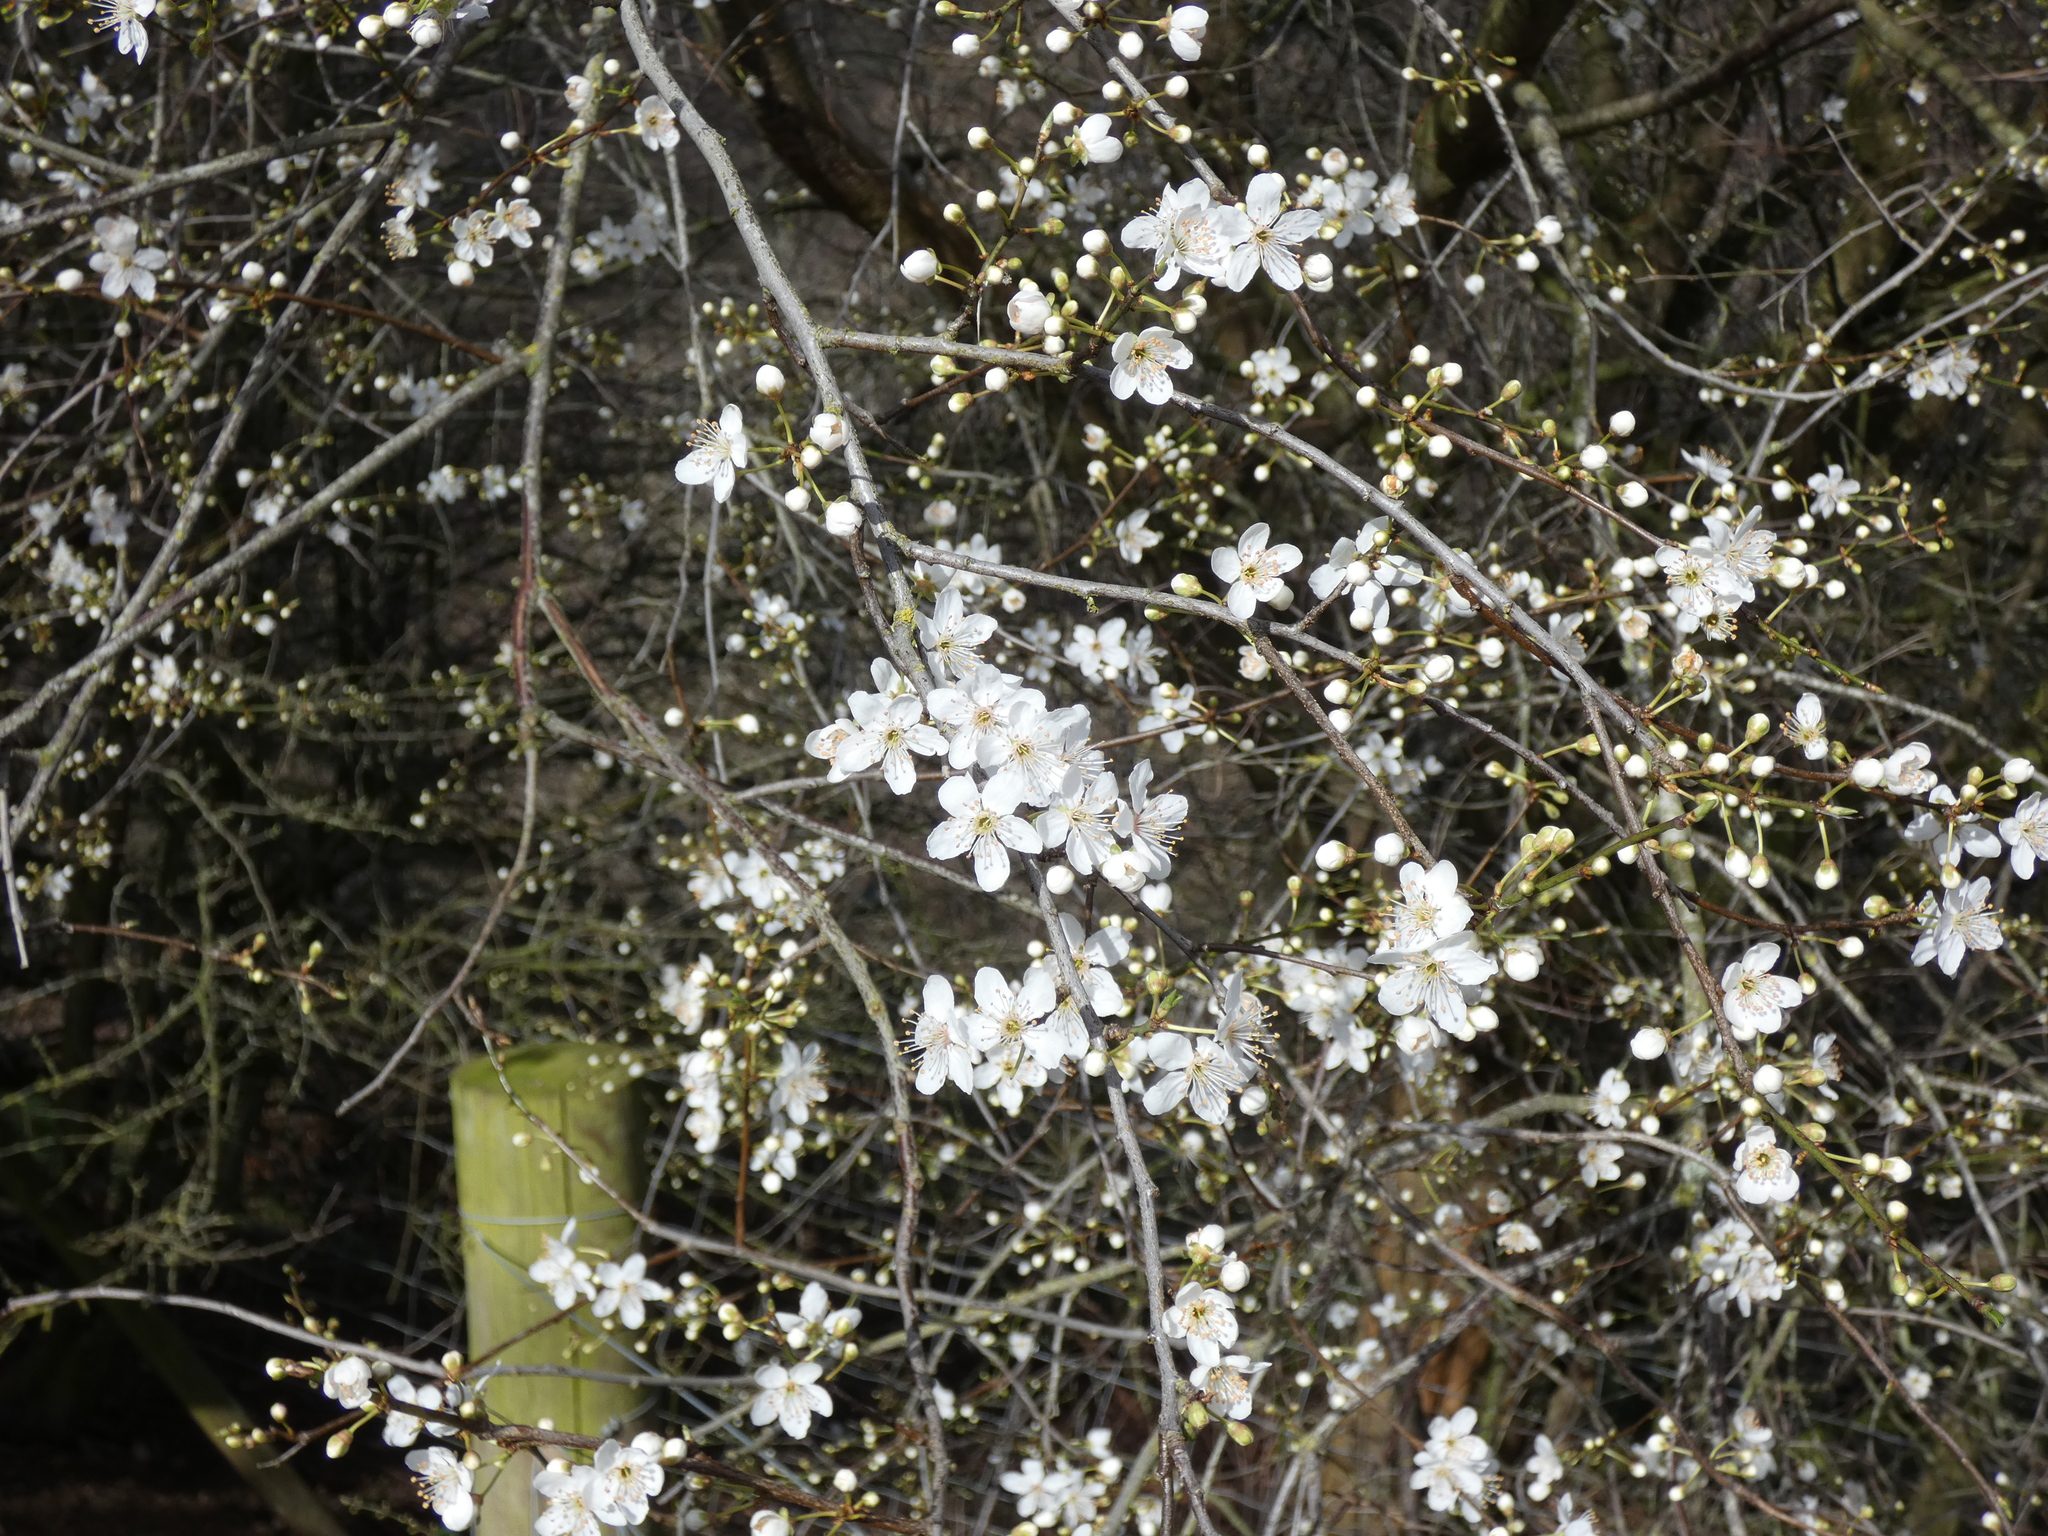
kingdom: Plantae
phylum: Tracheophyta
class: Magnoliopsida
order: Rosales
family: Rosaceae
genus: Prunus
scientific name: Prunus spinosa
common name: Blackthorn
